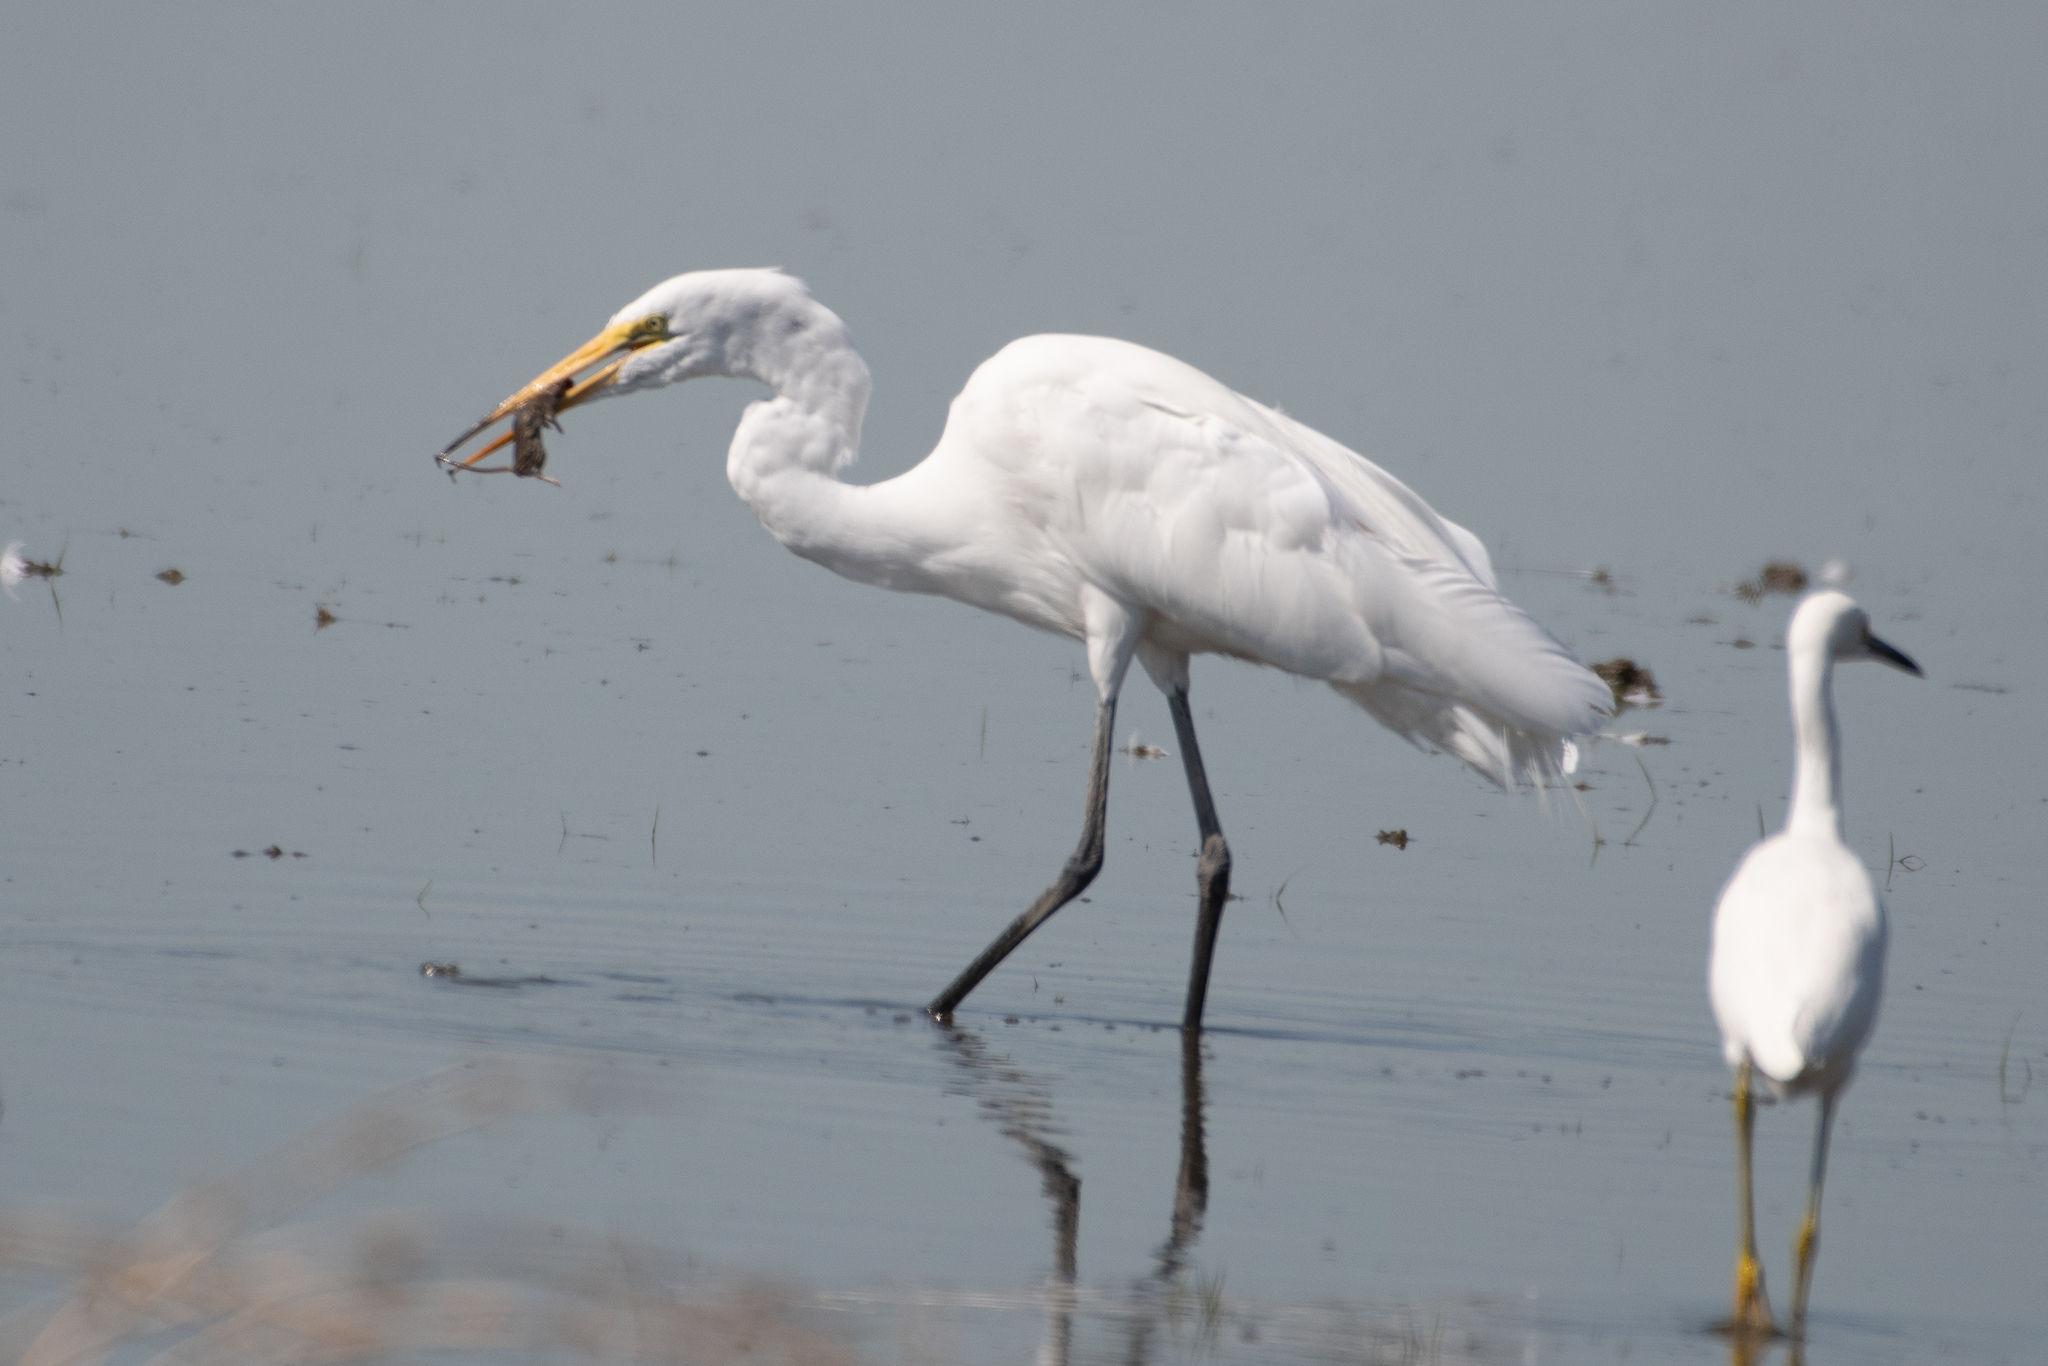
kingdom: Animalia
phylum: Chordata
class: Aves
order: Pelecaniformes
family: Ardeidae
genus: Ardea
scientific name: Ardea alba
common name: Great egret
